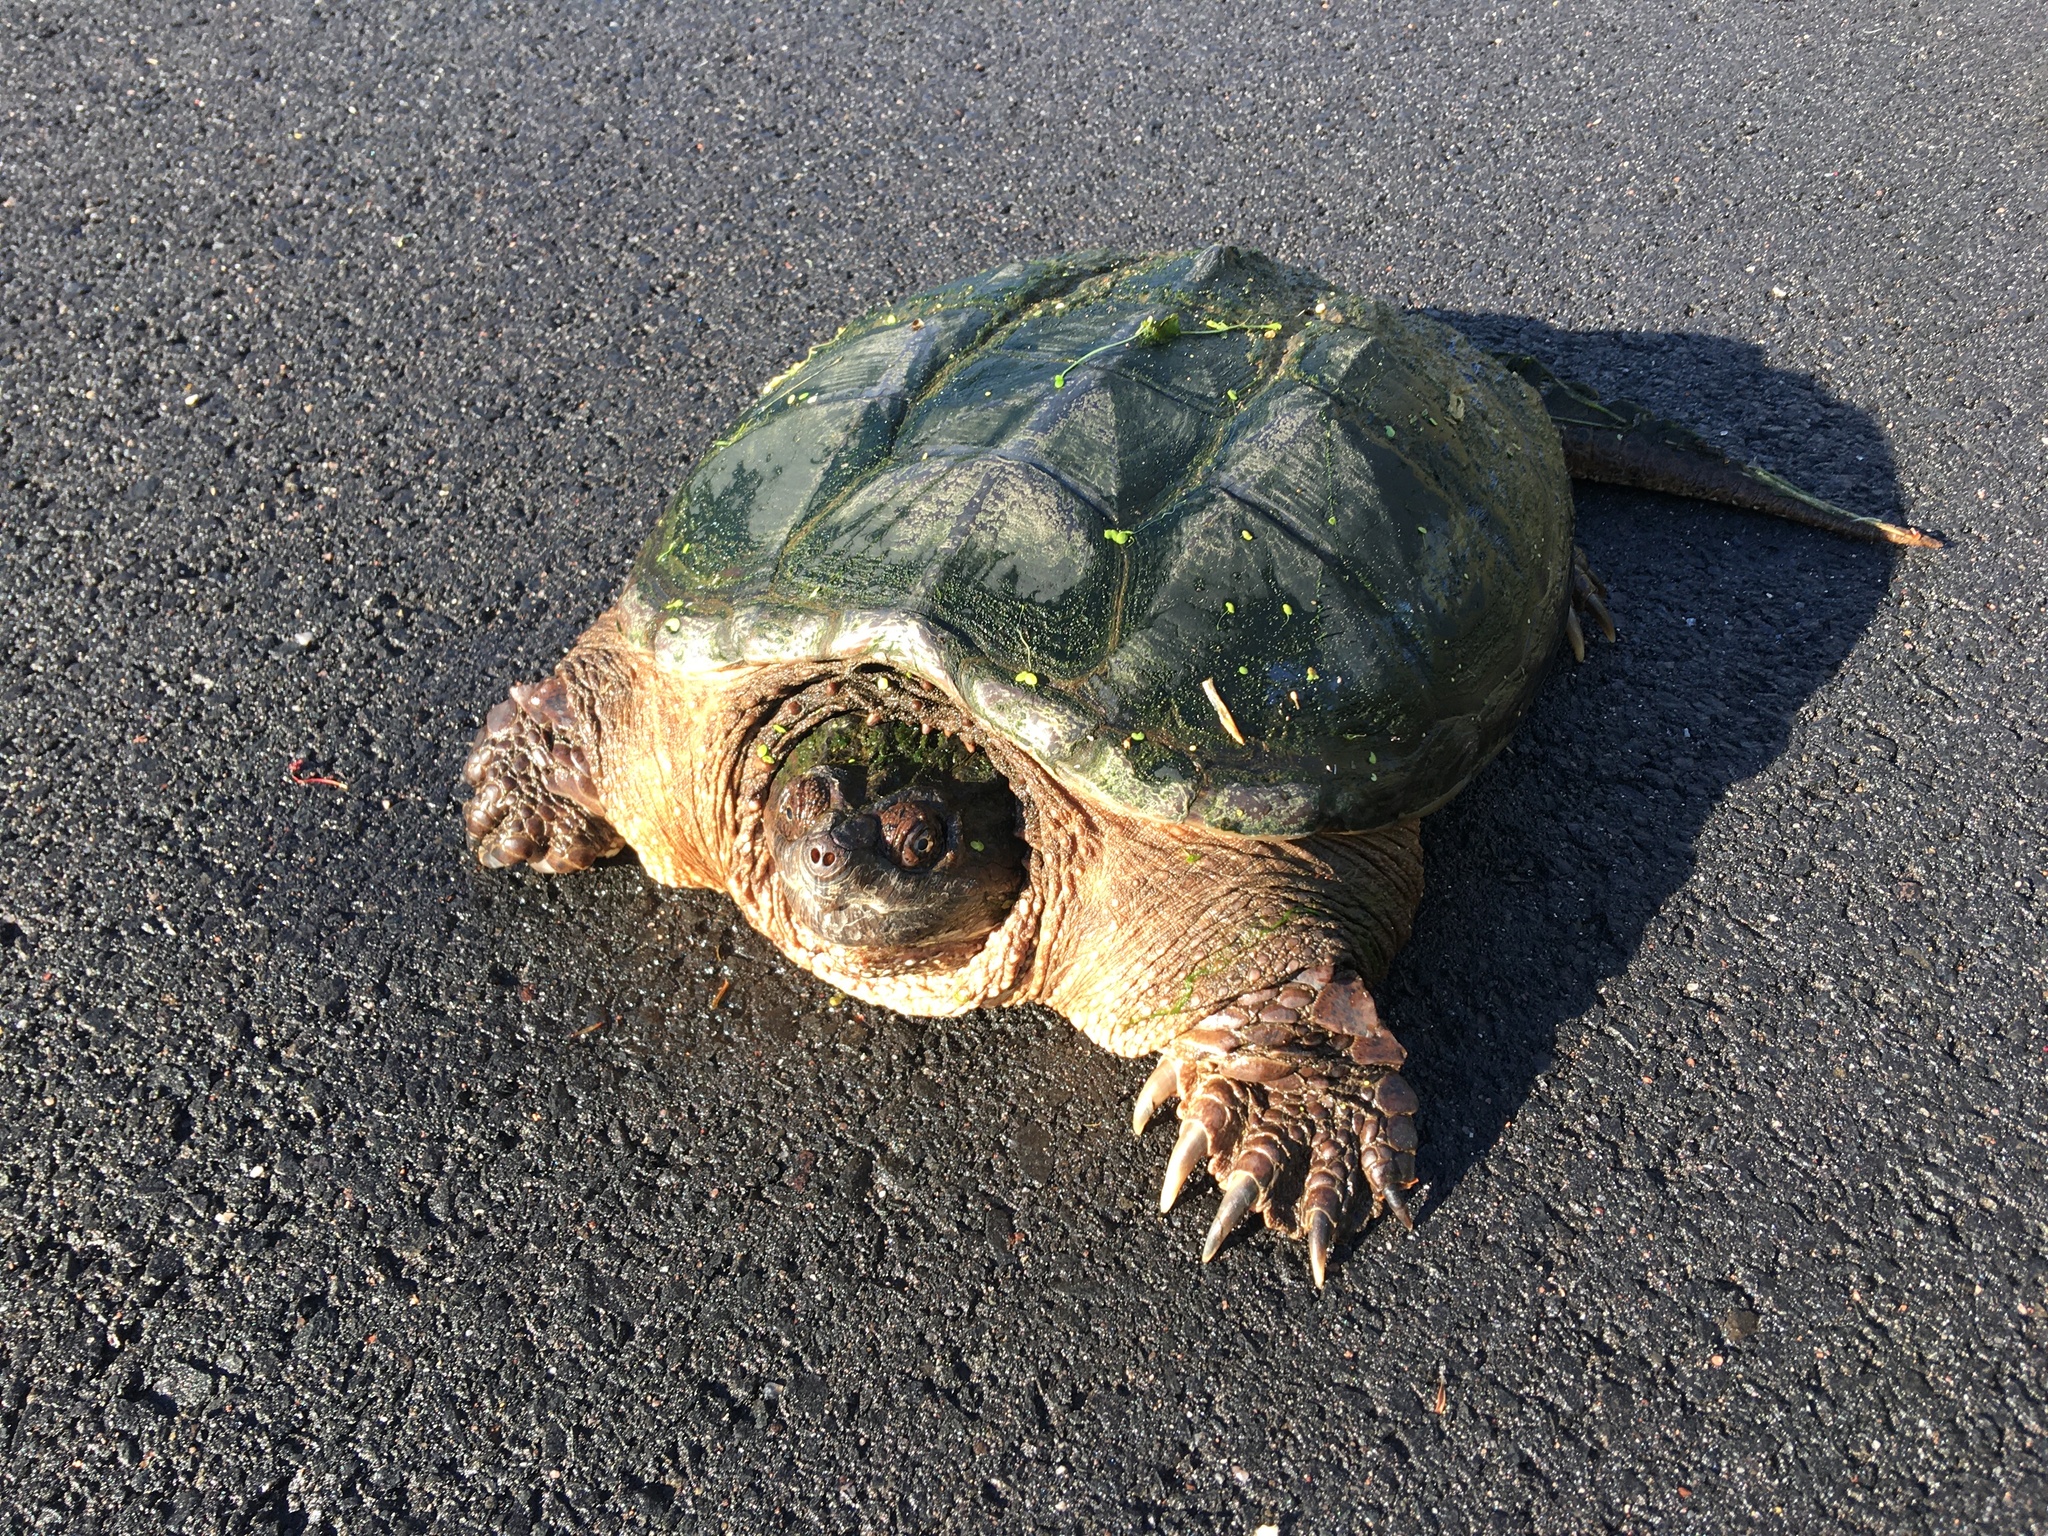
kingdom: Animalia
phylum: Chordata
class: Testudines
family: Chelydridae
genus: Chelydra
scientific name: Chelydra serpentina
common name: Common snapping turtle
